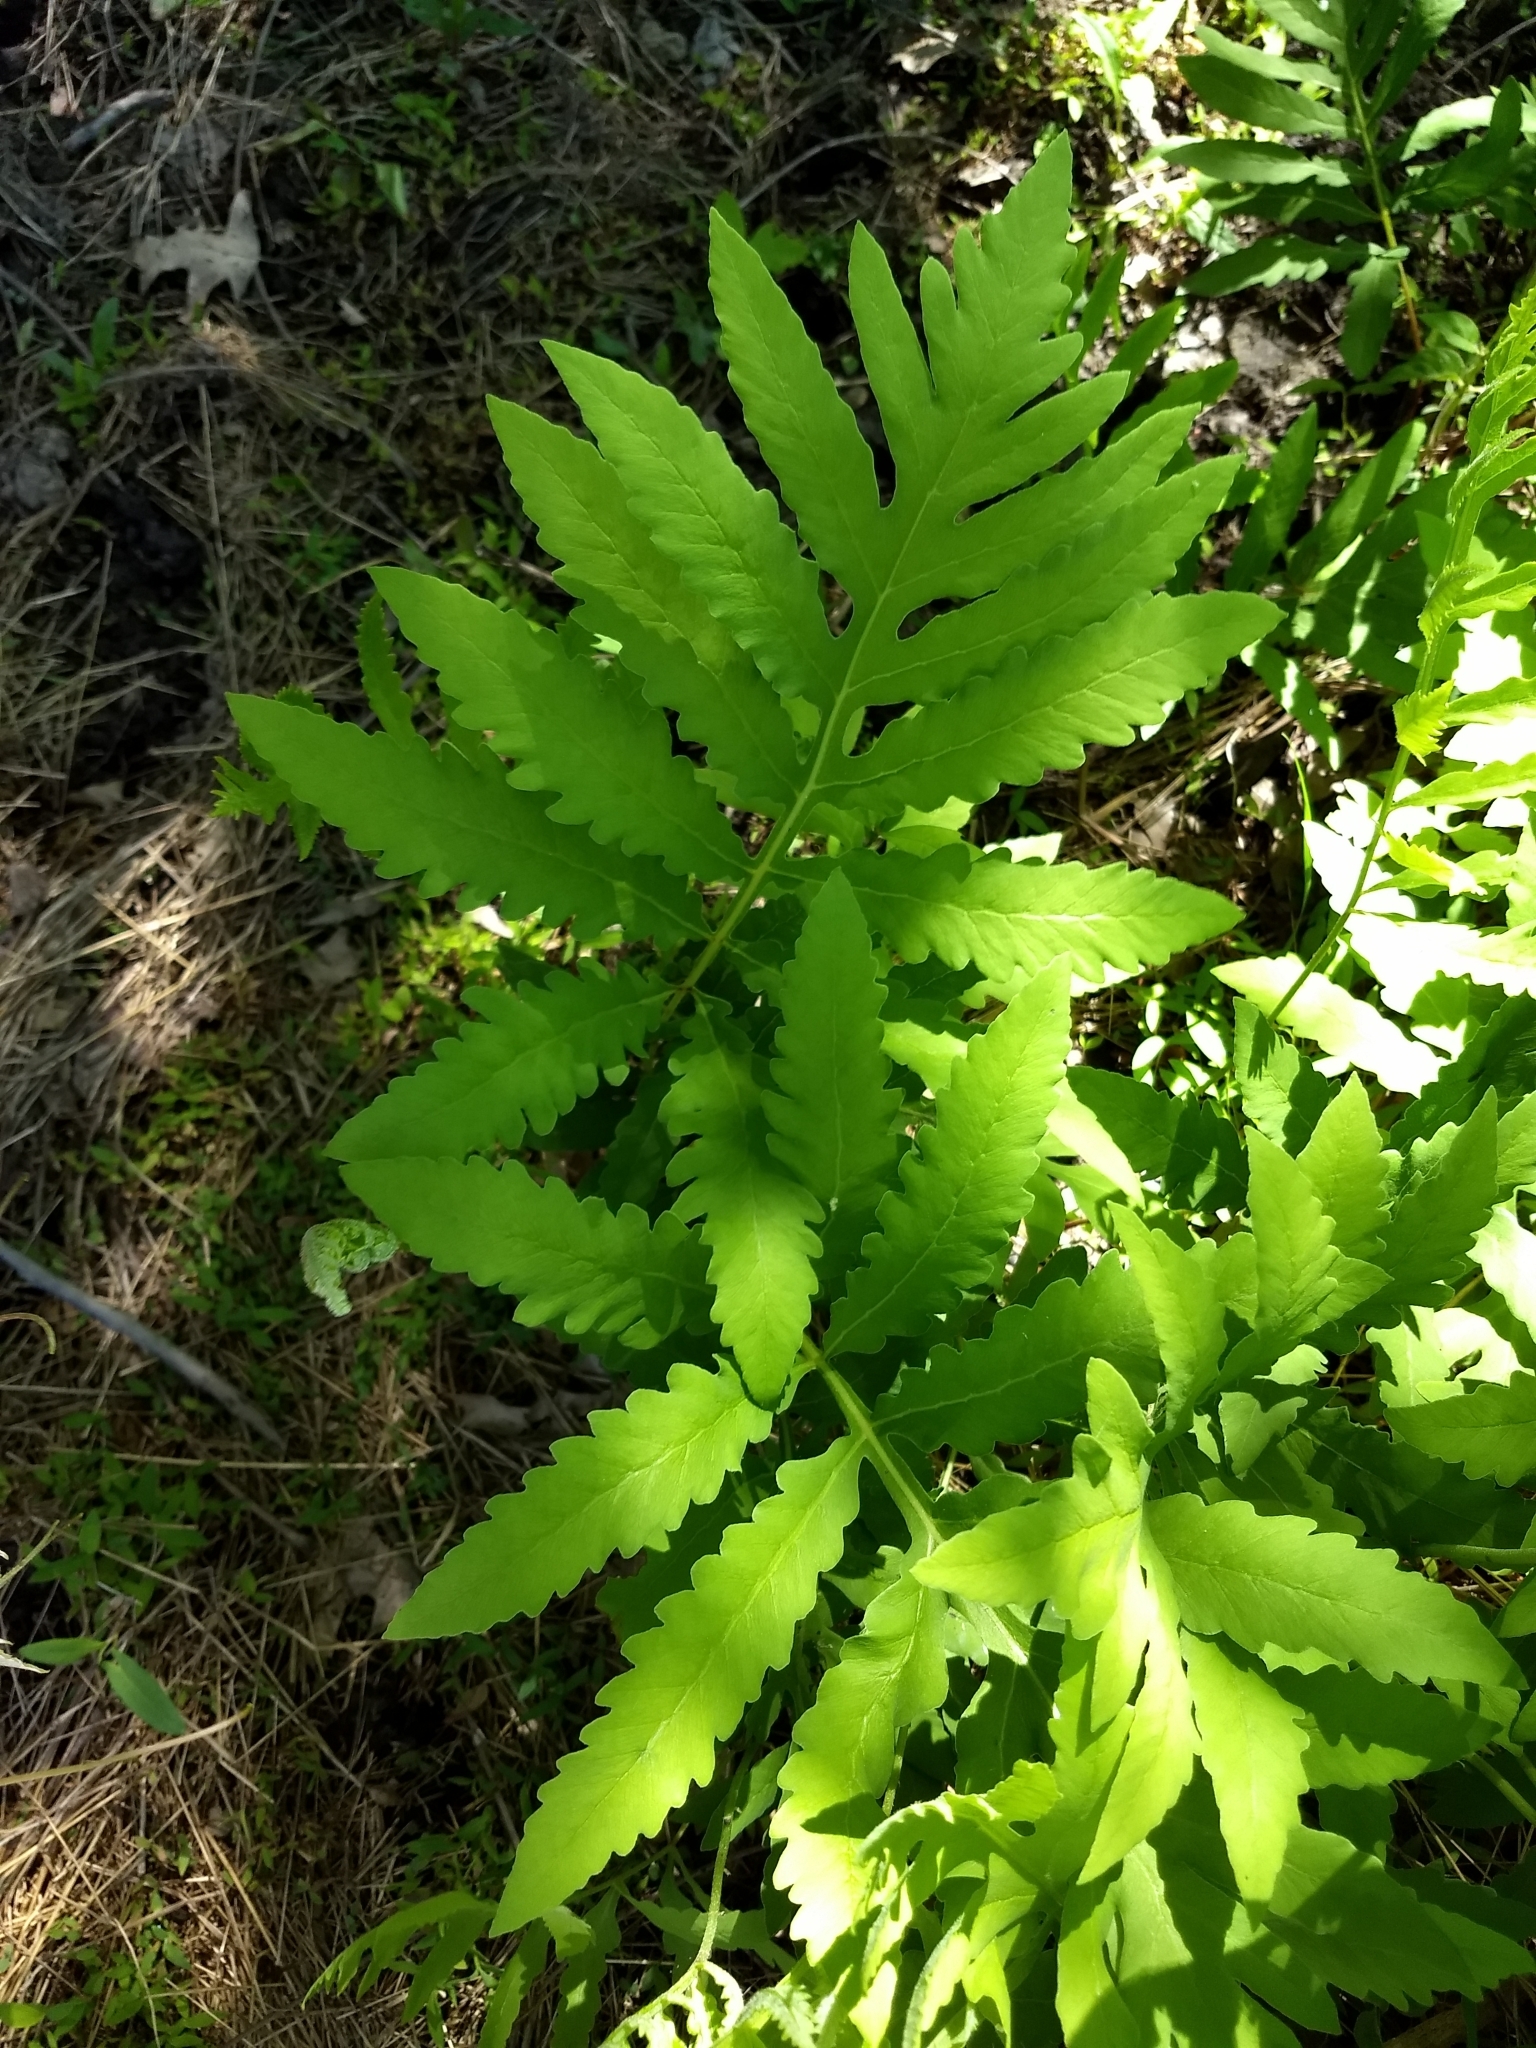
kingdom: Plantae
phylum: Tracheophyta
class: Polypodiopsida
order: Polypodiales
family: Onocleaceae
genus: Onoclea
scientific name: Onoclea sensibilis
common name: Sensitive fern
